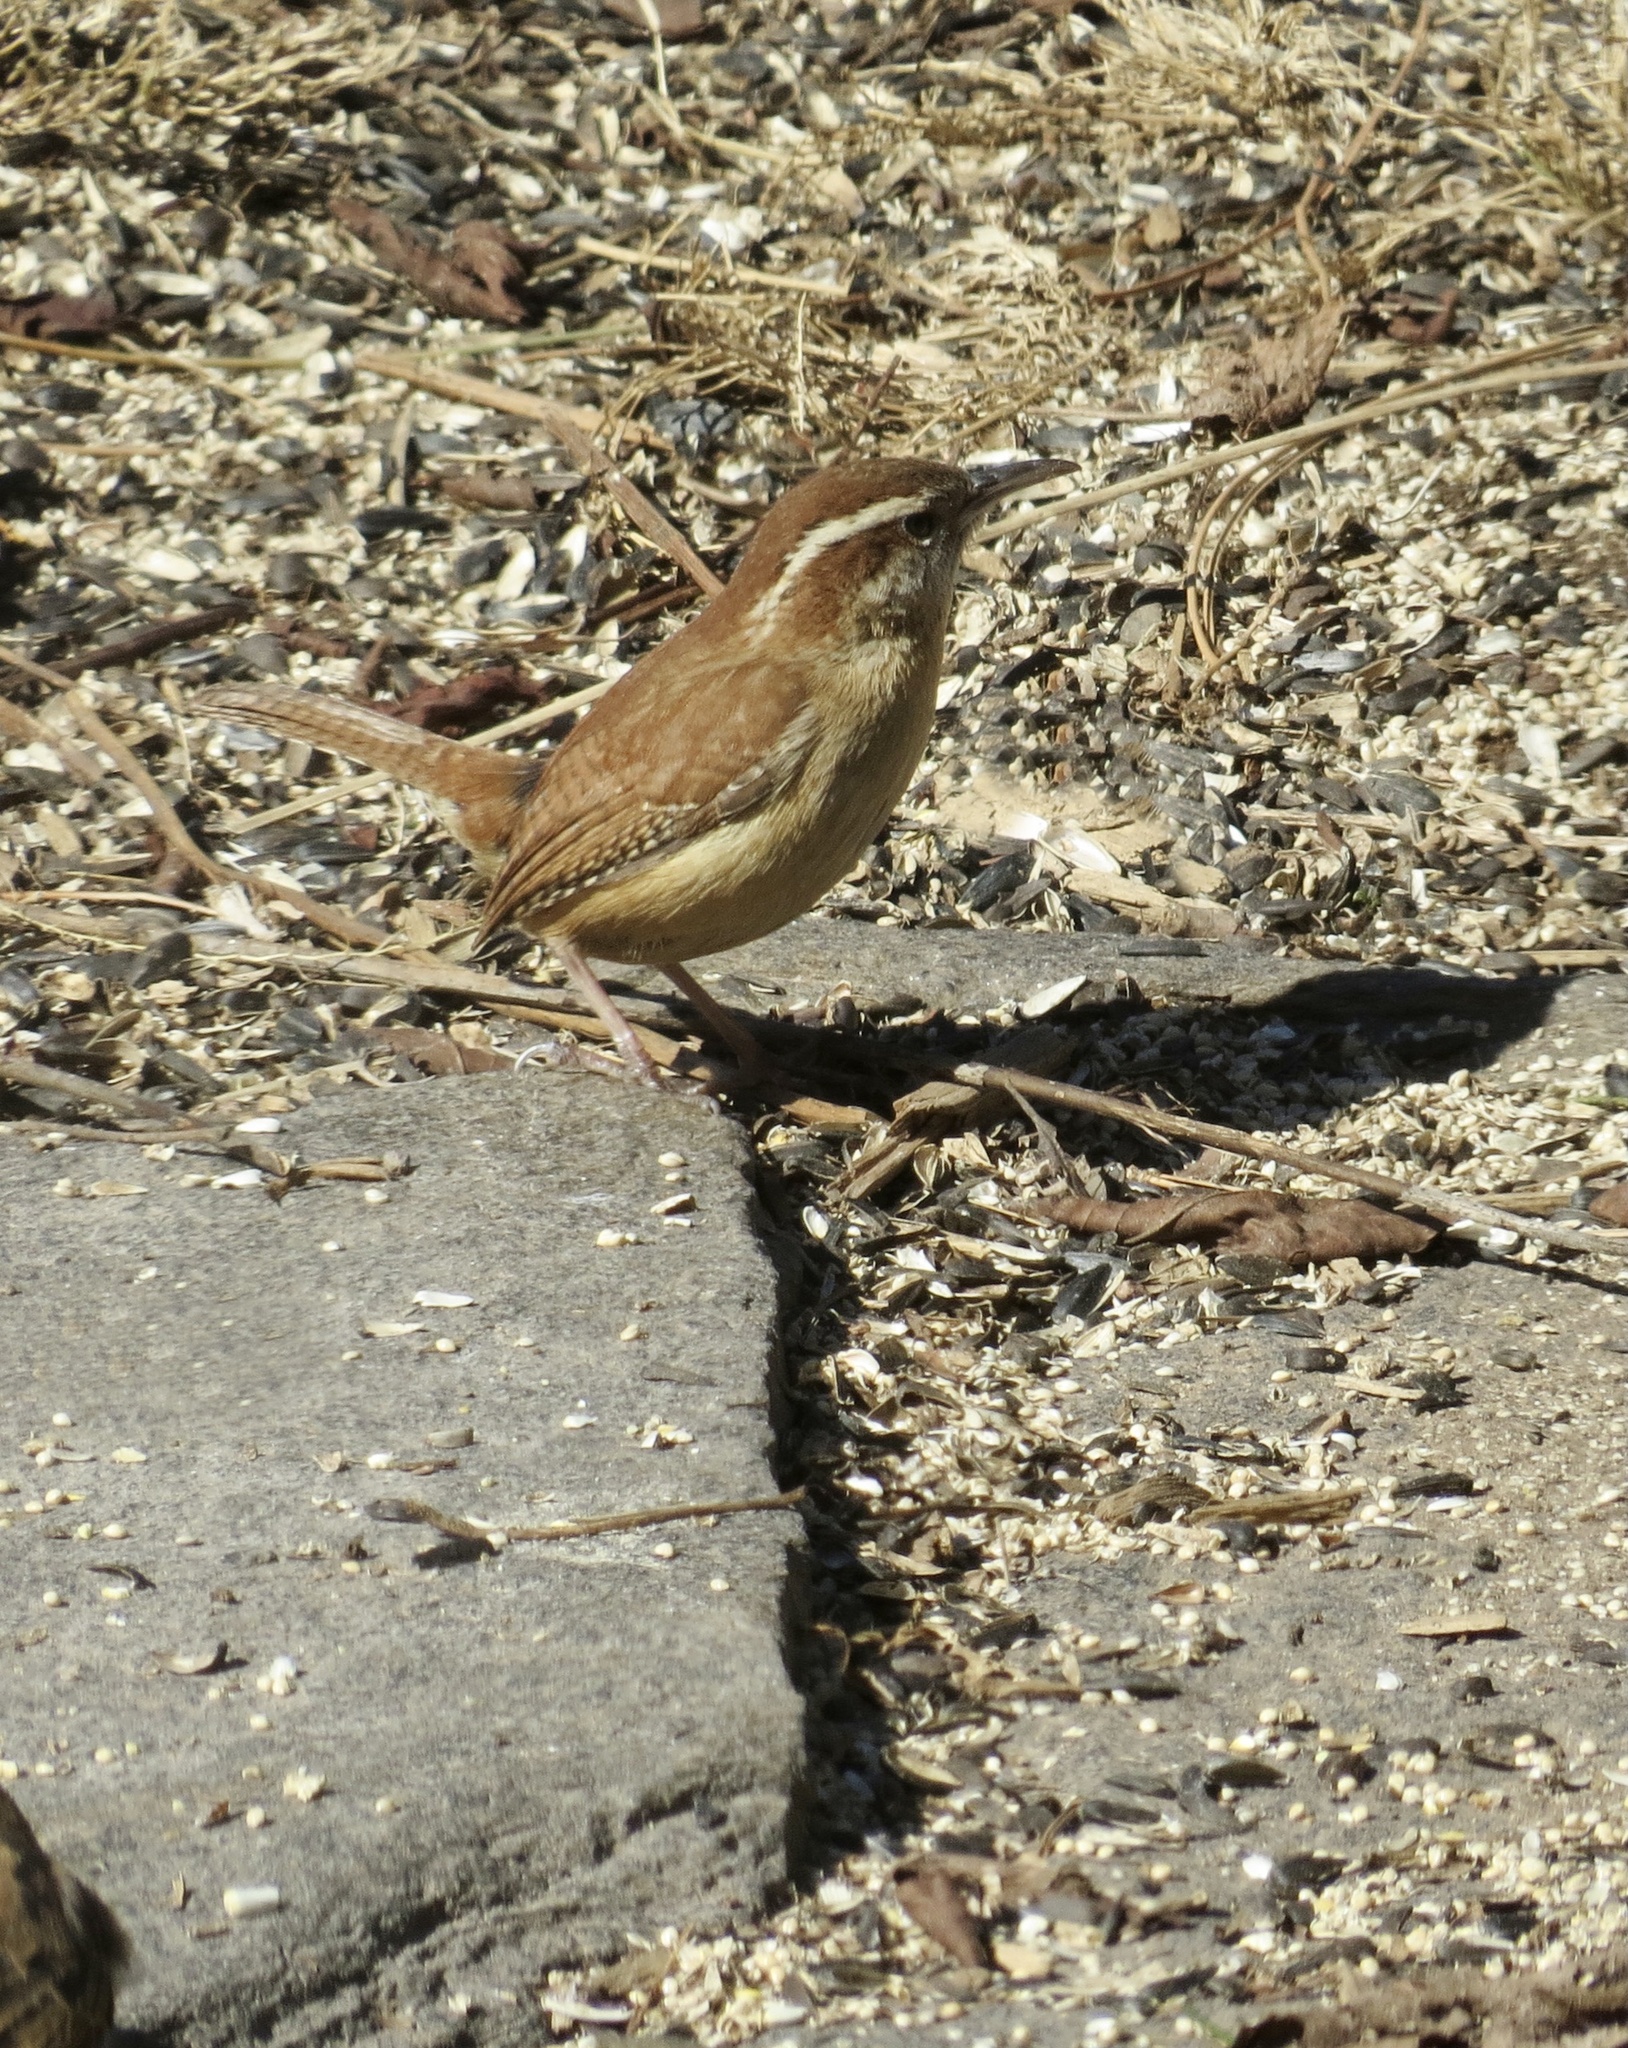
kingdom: Animalia
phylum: Chordata
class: Aves
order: Passeriformes
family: Troglodytidae
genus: Thryothorus
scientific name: Thryothorus ludovicianus
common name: Carolina wren
